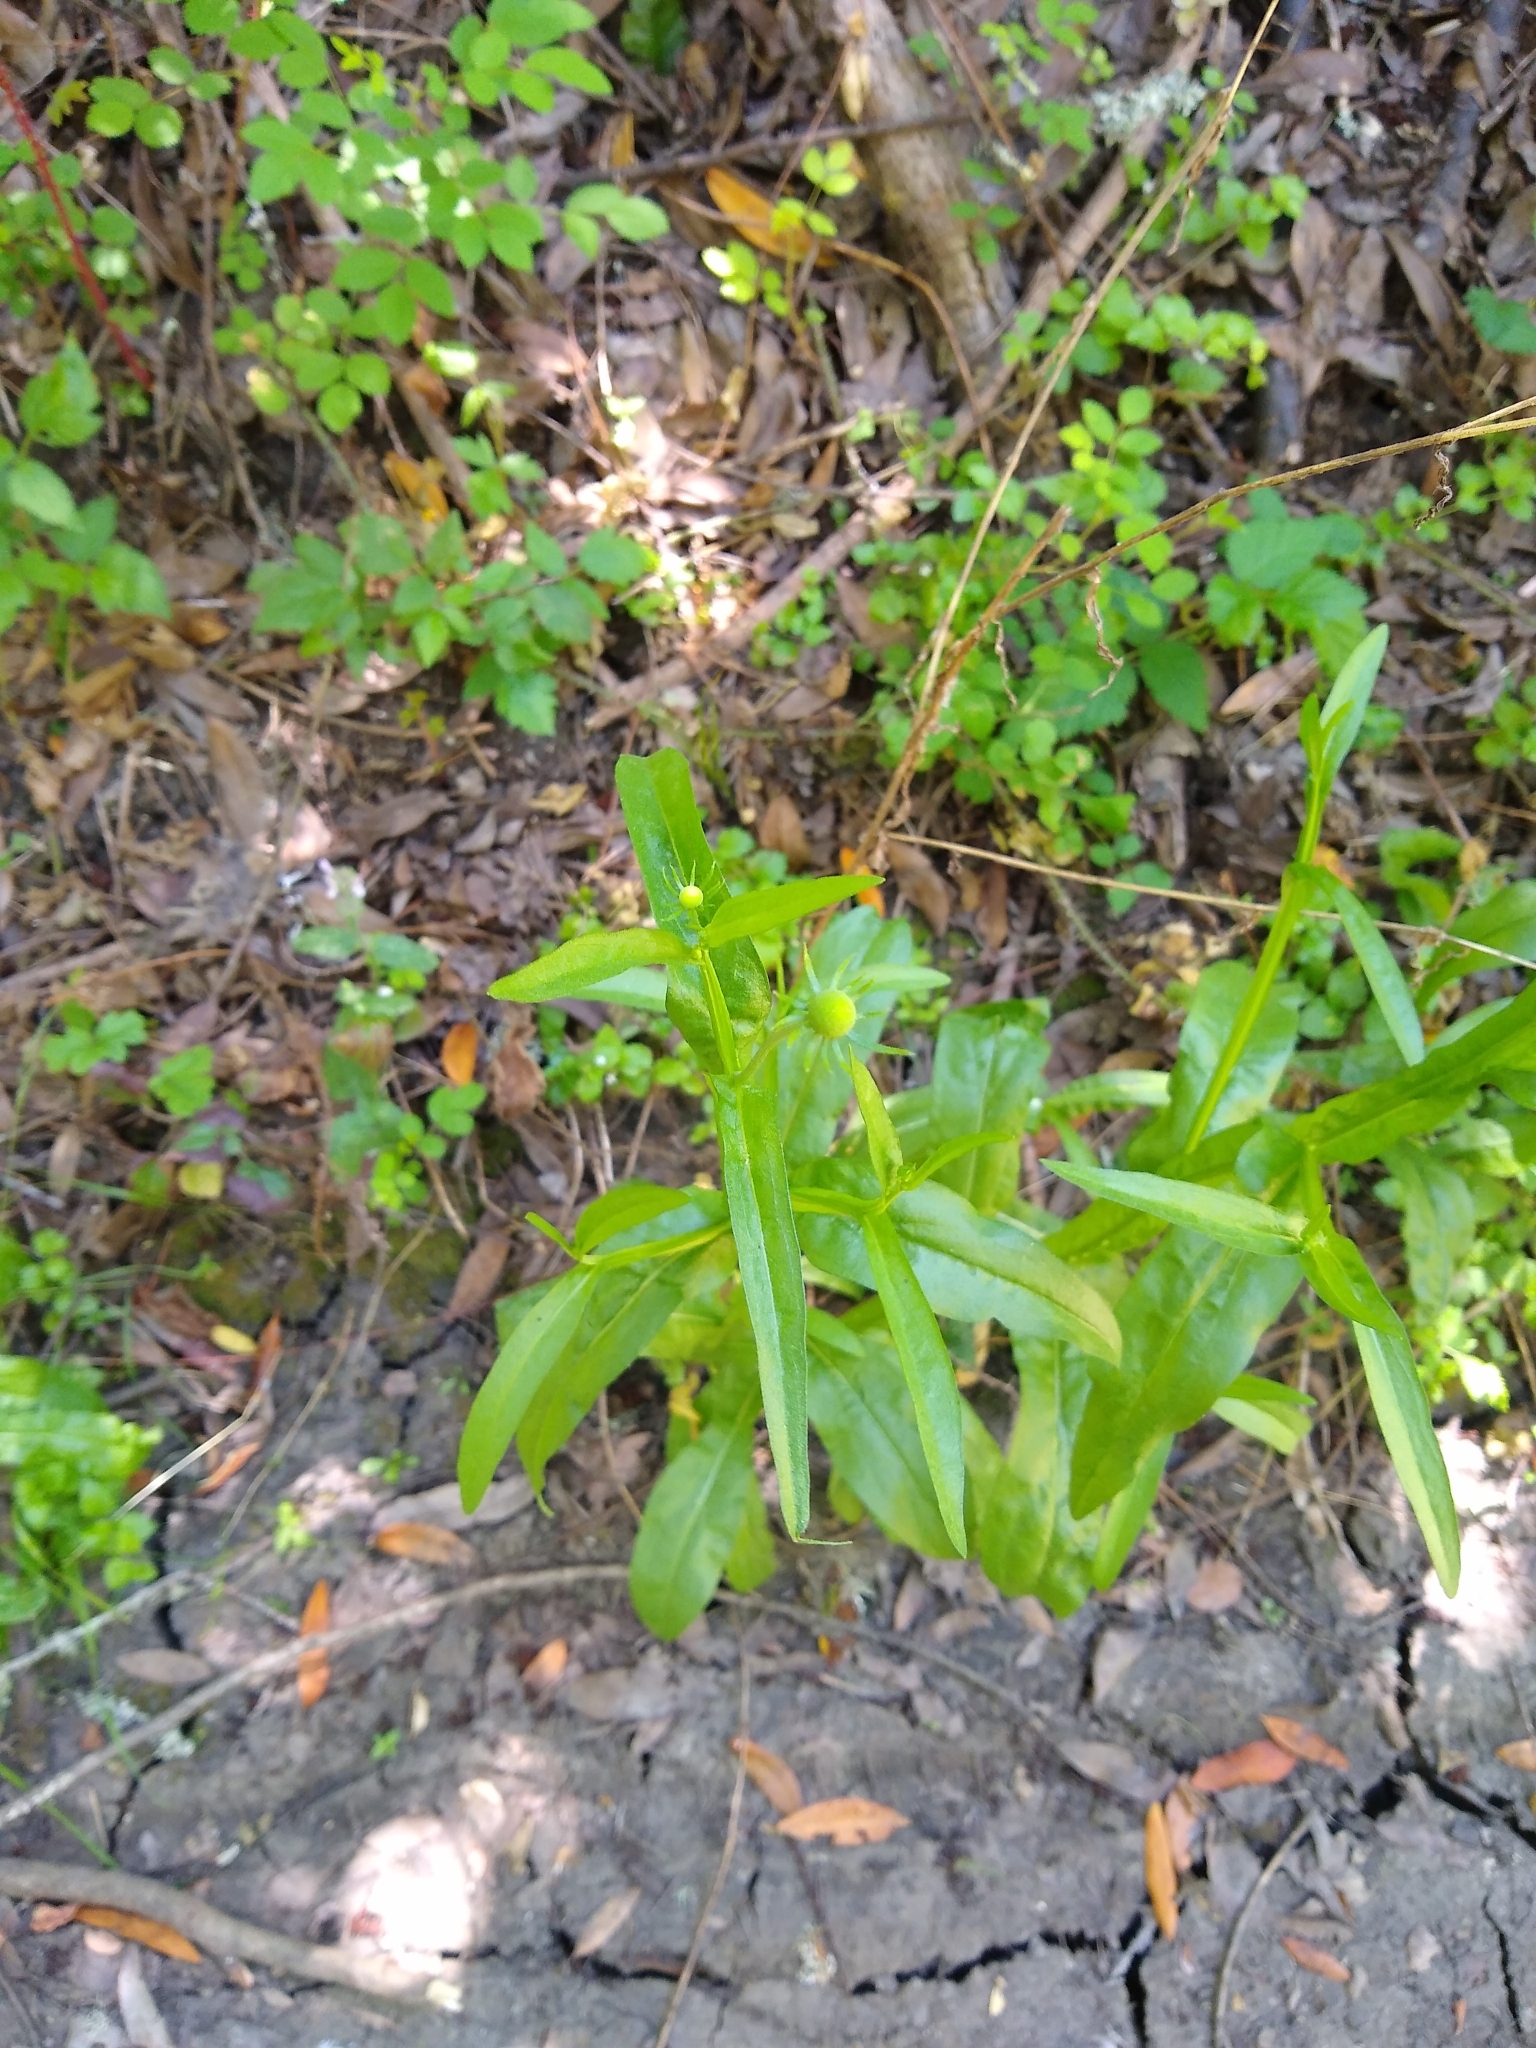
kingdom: Plantae
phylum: Tracheophyta
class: Magnoliopsida
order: Asterales
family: Asteraceae
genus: Helenium
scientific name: Helenium puberulum
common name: Sneezewort
